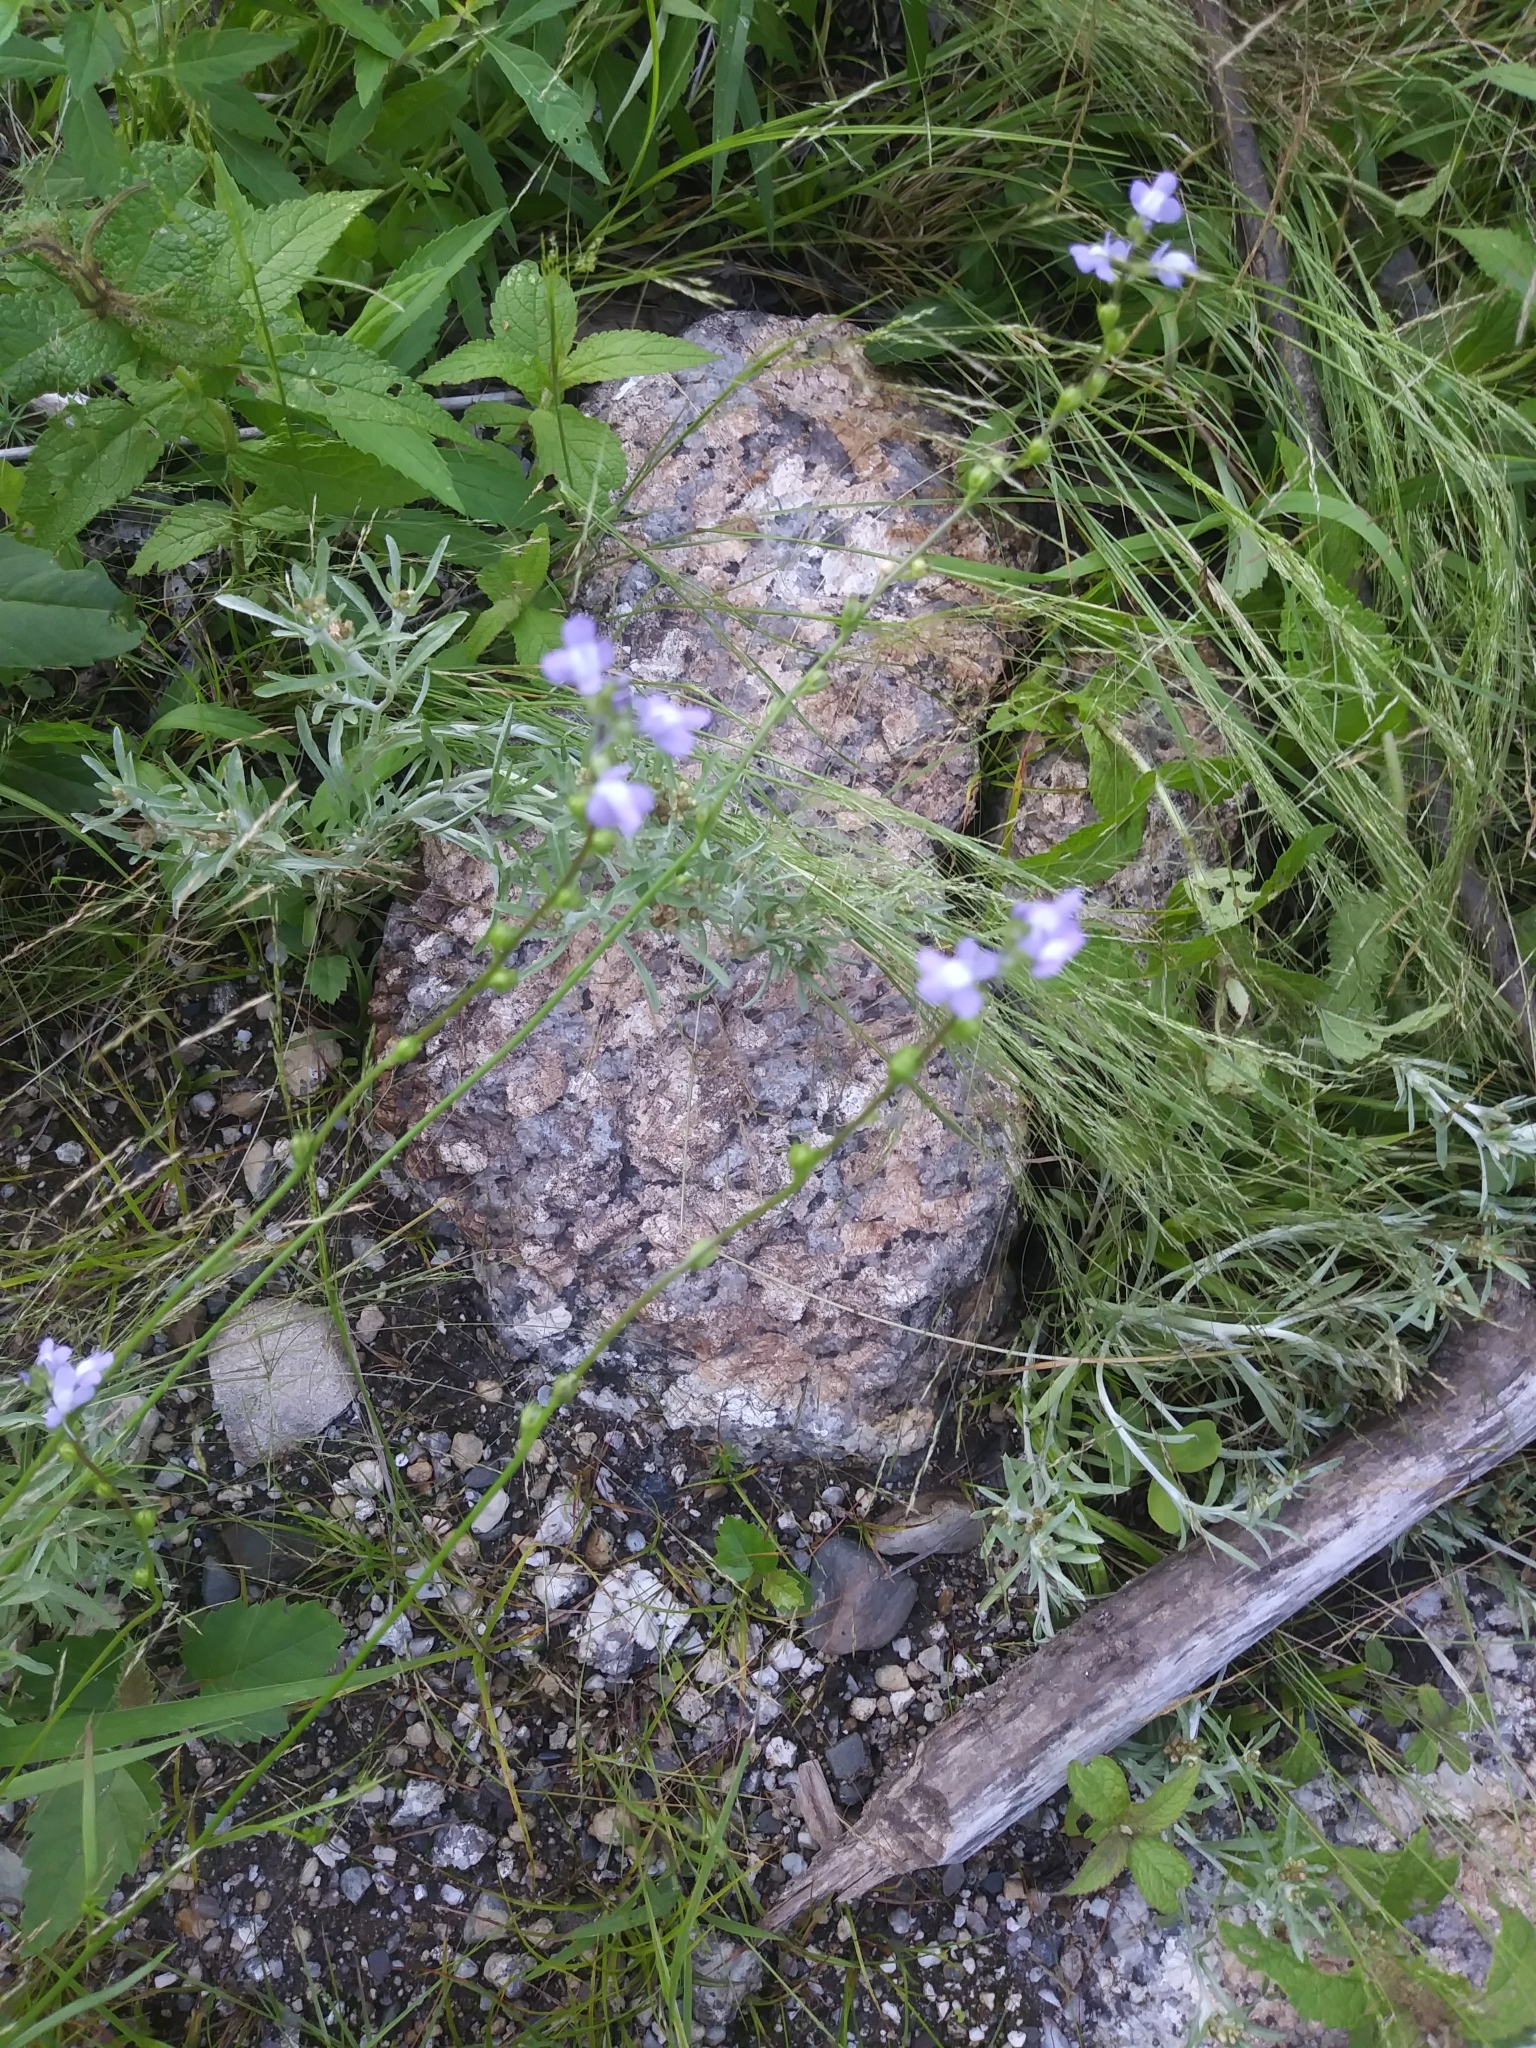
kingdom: Plantae
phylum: Tracheophyta
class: Magnoliopsida
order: Lamiales
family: Plantaginaceae
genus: Nuttallanthus
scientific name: Nuttallanthus canadensis
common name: Blue toadflax
